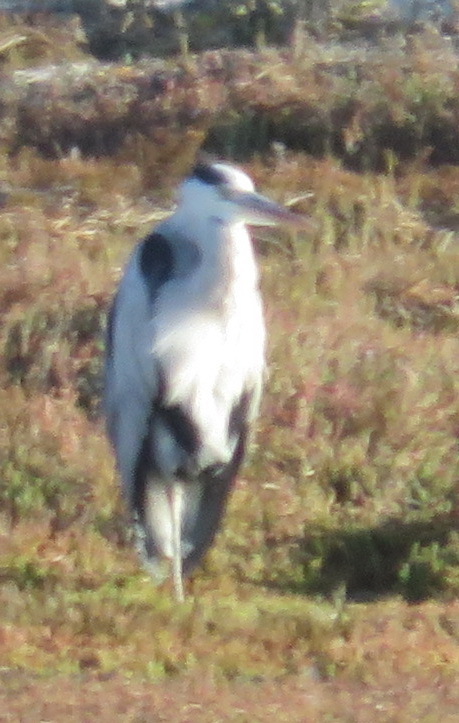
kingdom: Animalia
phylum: Chordata
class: Aves
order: Pelecaniformes
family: Ardeidae
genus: Ardea
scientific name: Ardea cinerea
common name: Grey heron
